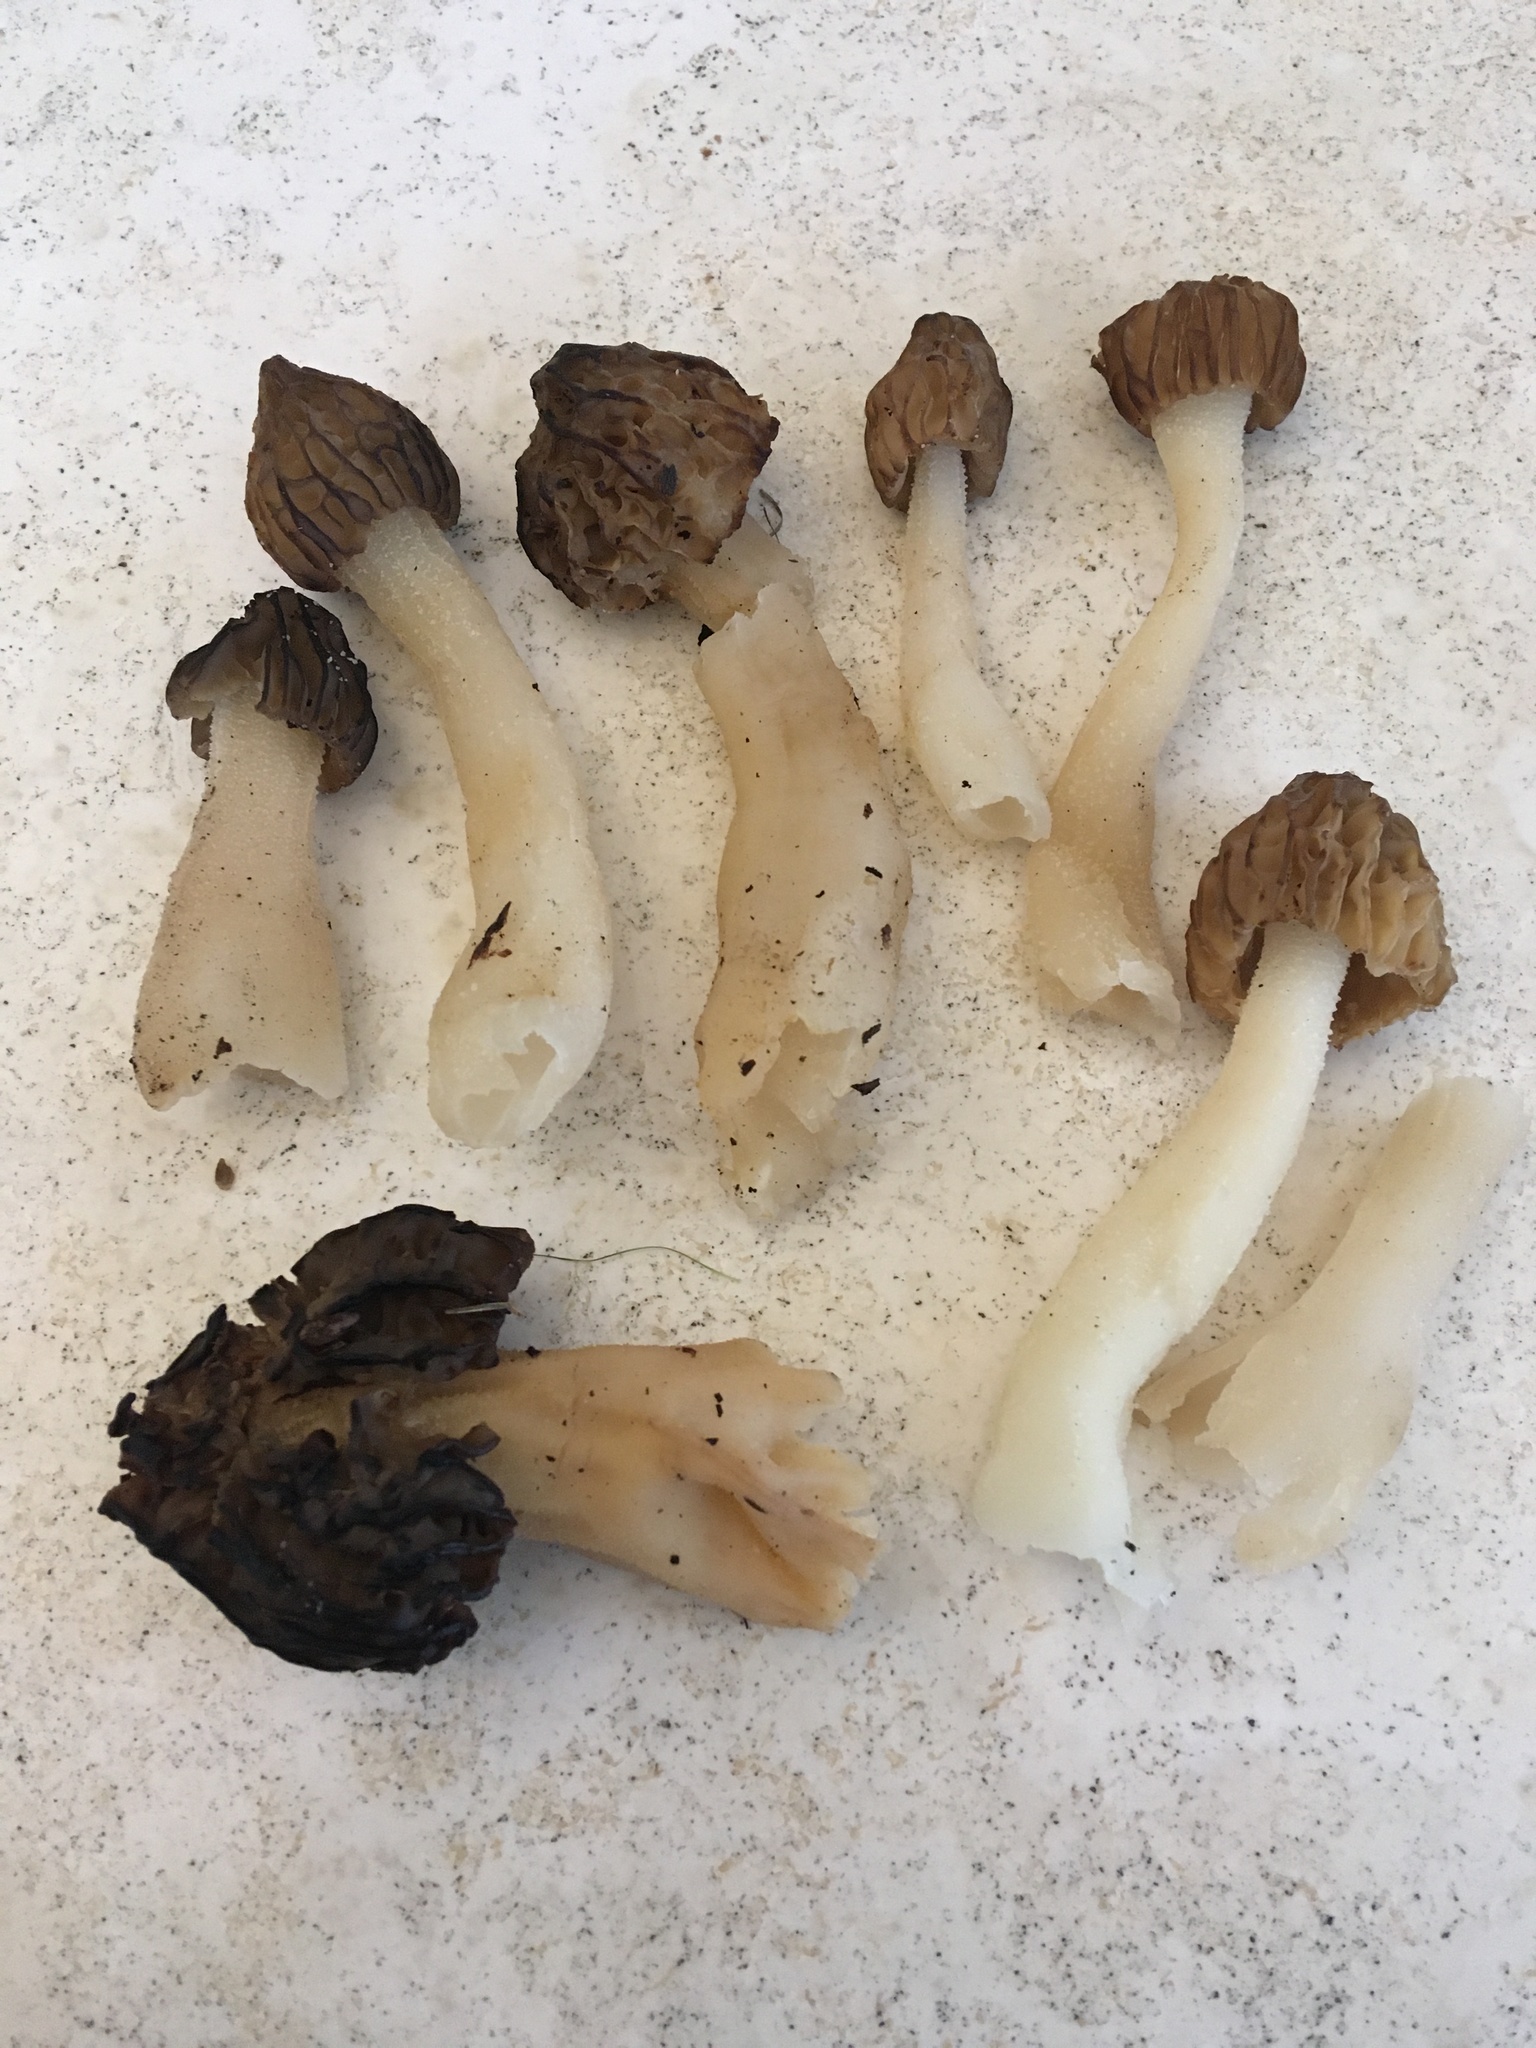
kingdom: Fungi
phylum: Ascomycota
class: Pezizomycetes
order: Pezizales
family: Morchellaceae
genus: Morchella
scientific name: Morchella punctipes
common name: Half-free morel
